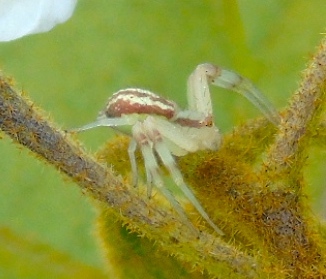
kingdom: Animalia
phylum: Arthropoda
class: Arachnida
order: Araneae
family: Thomisidae
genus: Mecaphesa
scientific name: Mecaphesa
